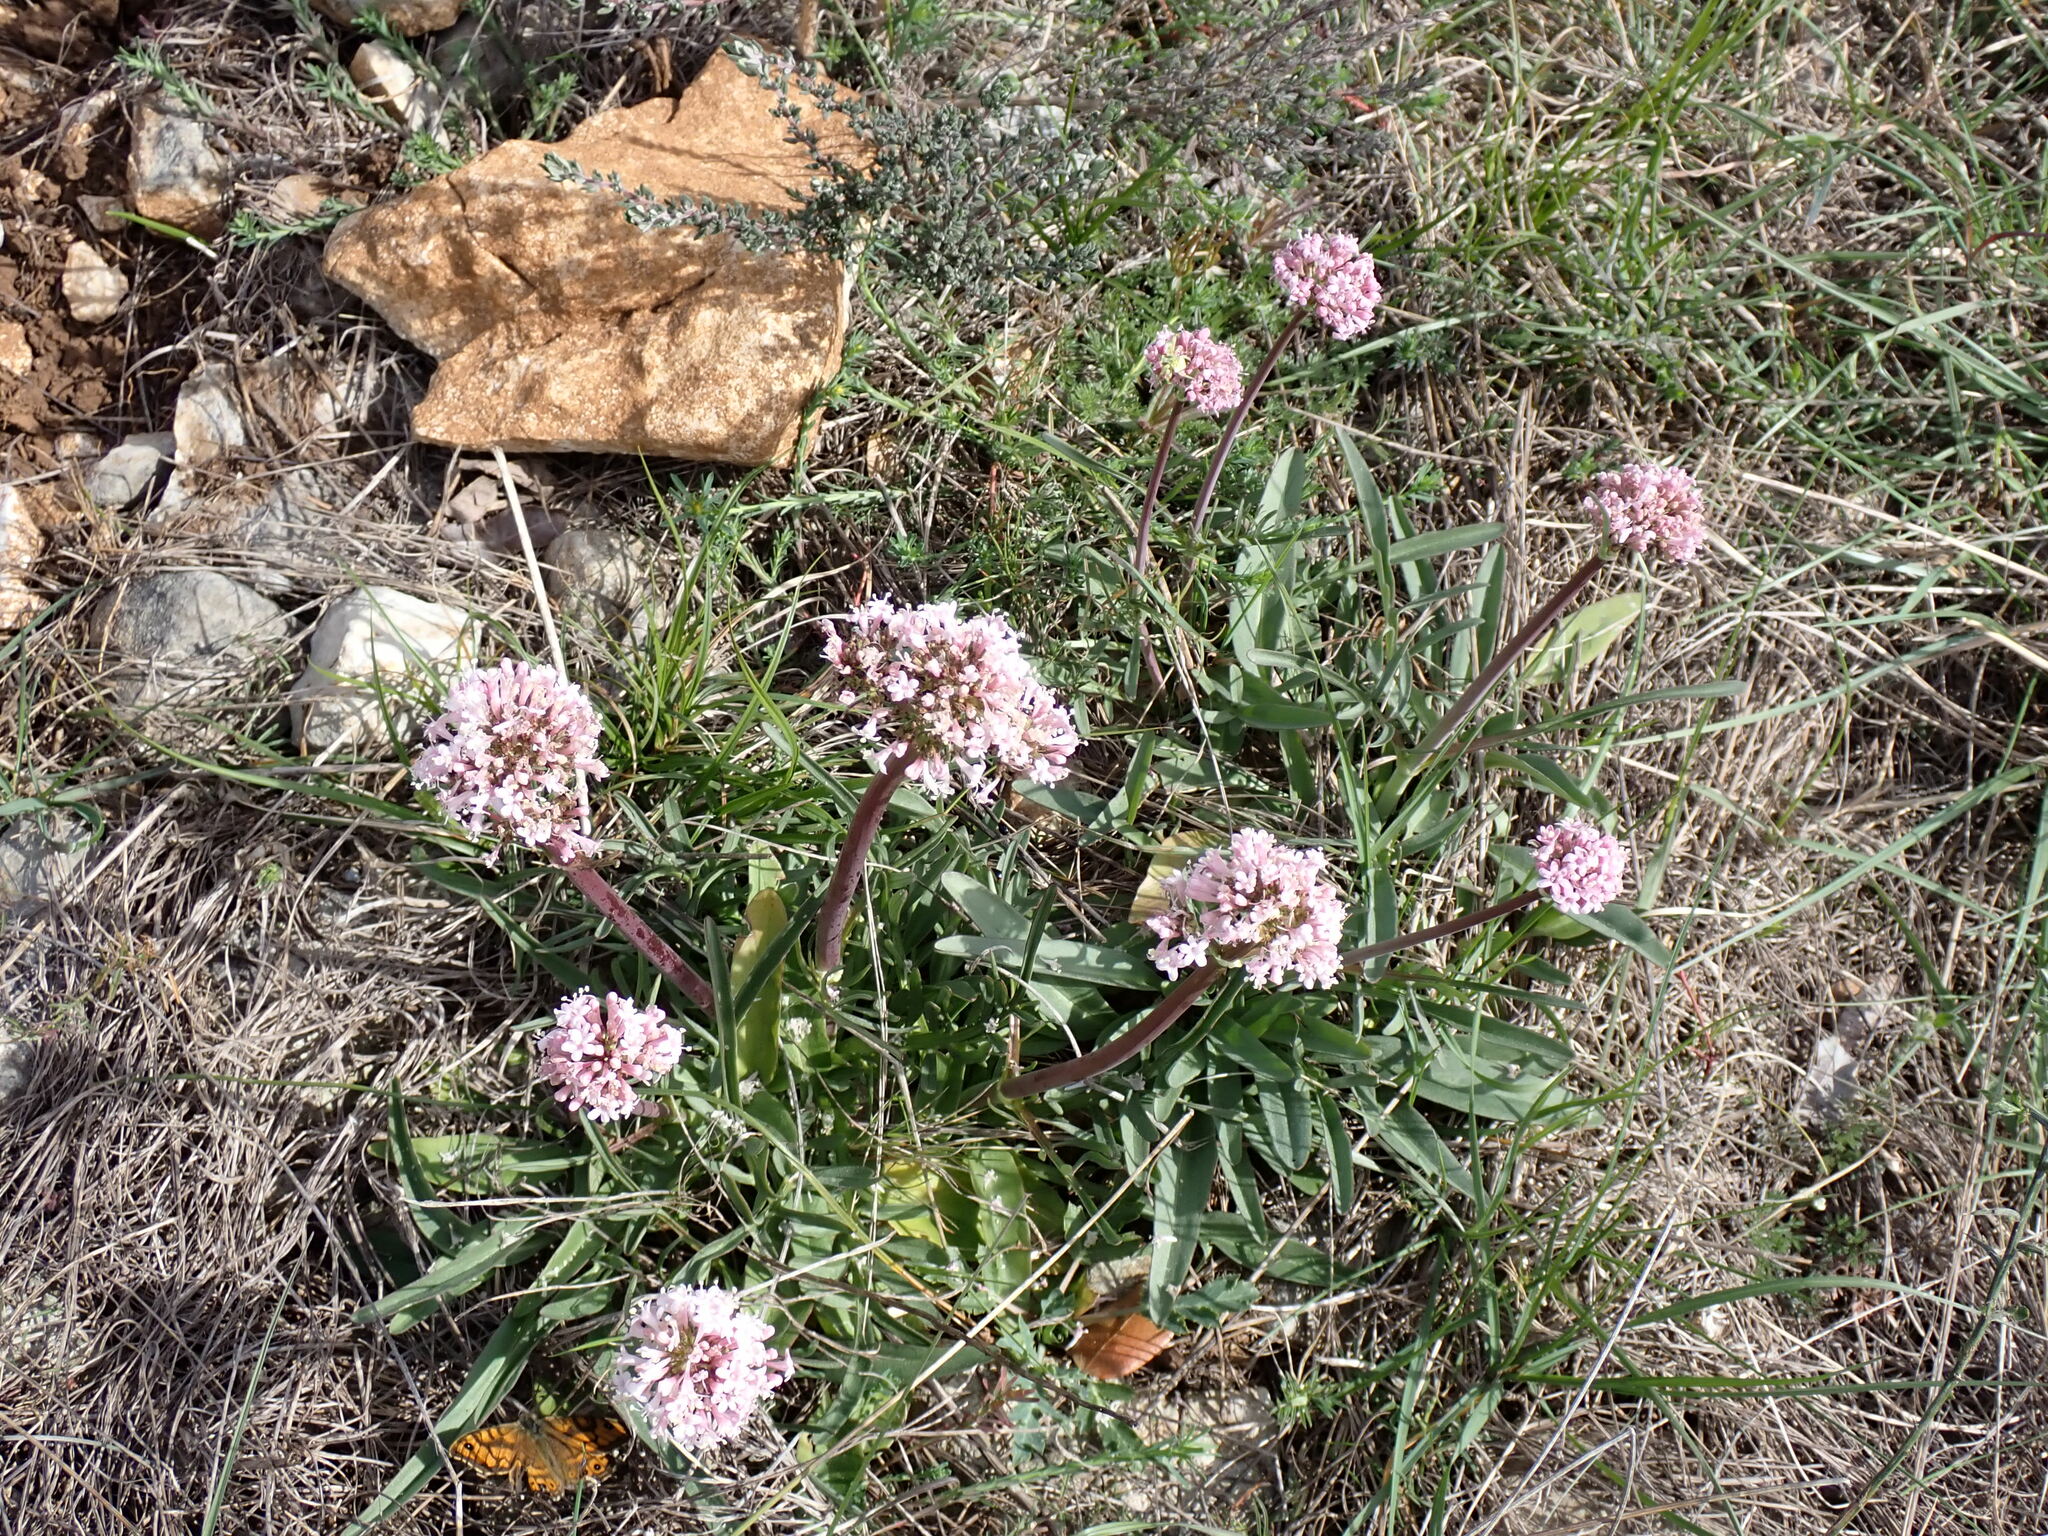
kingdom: Plantae
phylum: Tracheophyta
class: Magnoliopsida
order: Dipsacales
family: Caprifoliaceae
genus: Valeriana
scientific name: Valeriana tuberosa
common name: Tuberous valerian
